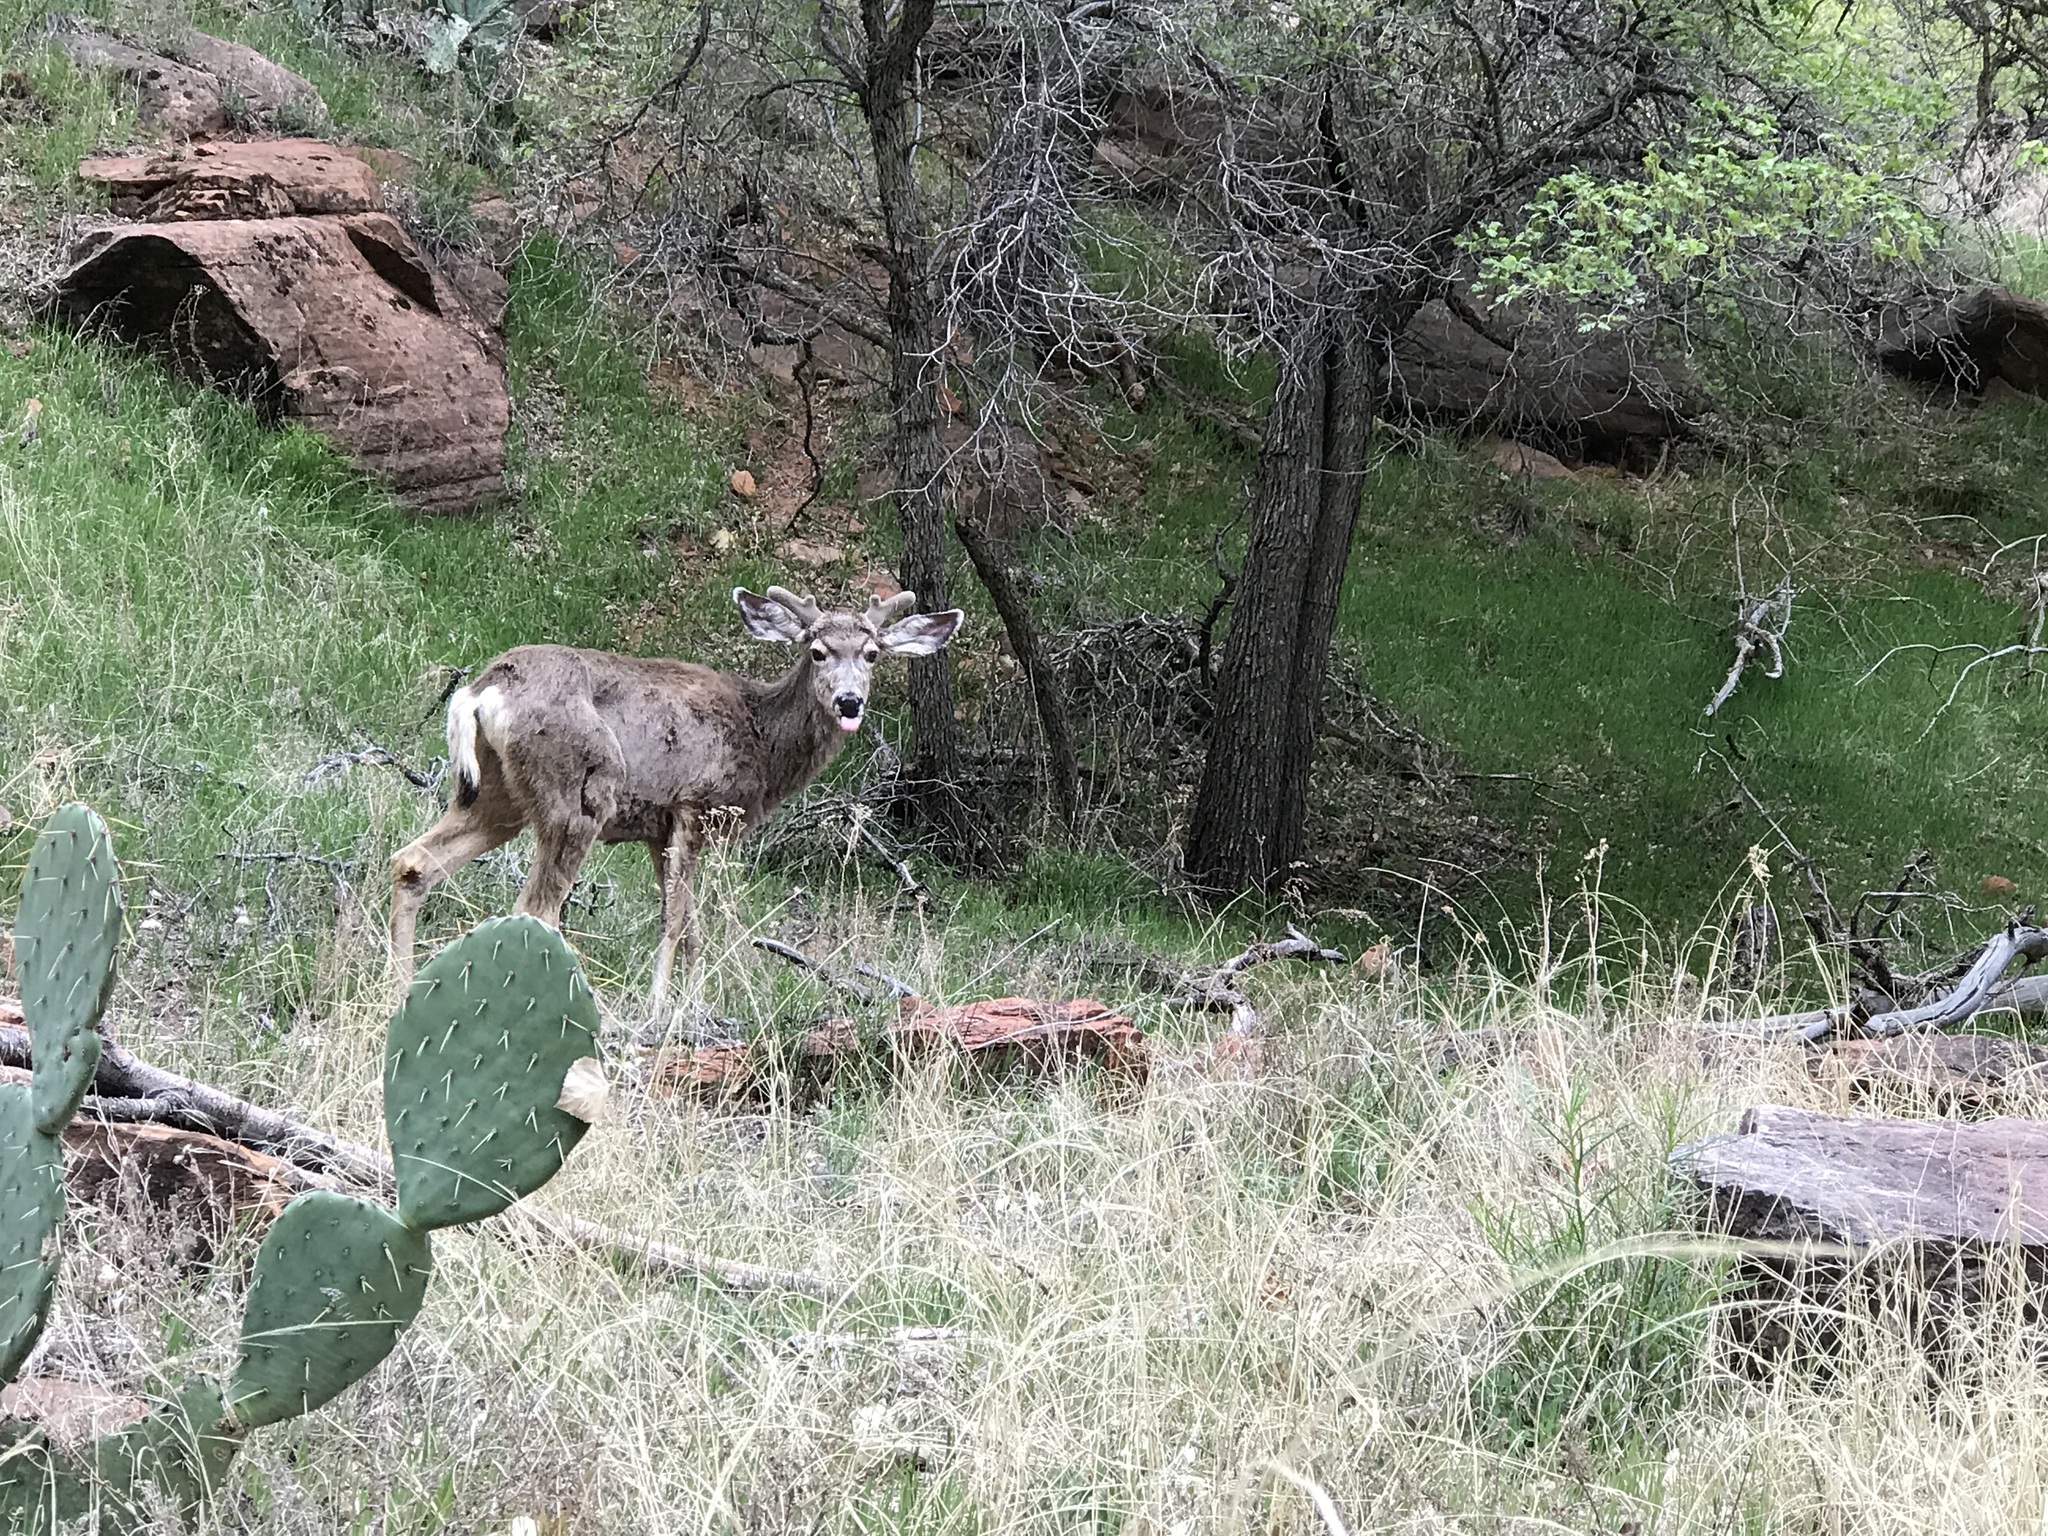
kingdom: Animalia
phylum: Chordata
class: Mammalia
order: Artiodactyla
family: Cervidae
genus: Odocoileus
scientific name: Odocoileus hemionus
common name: Mule deer
